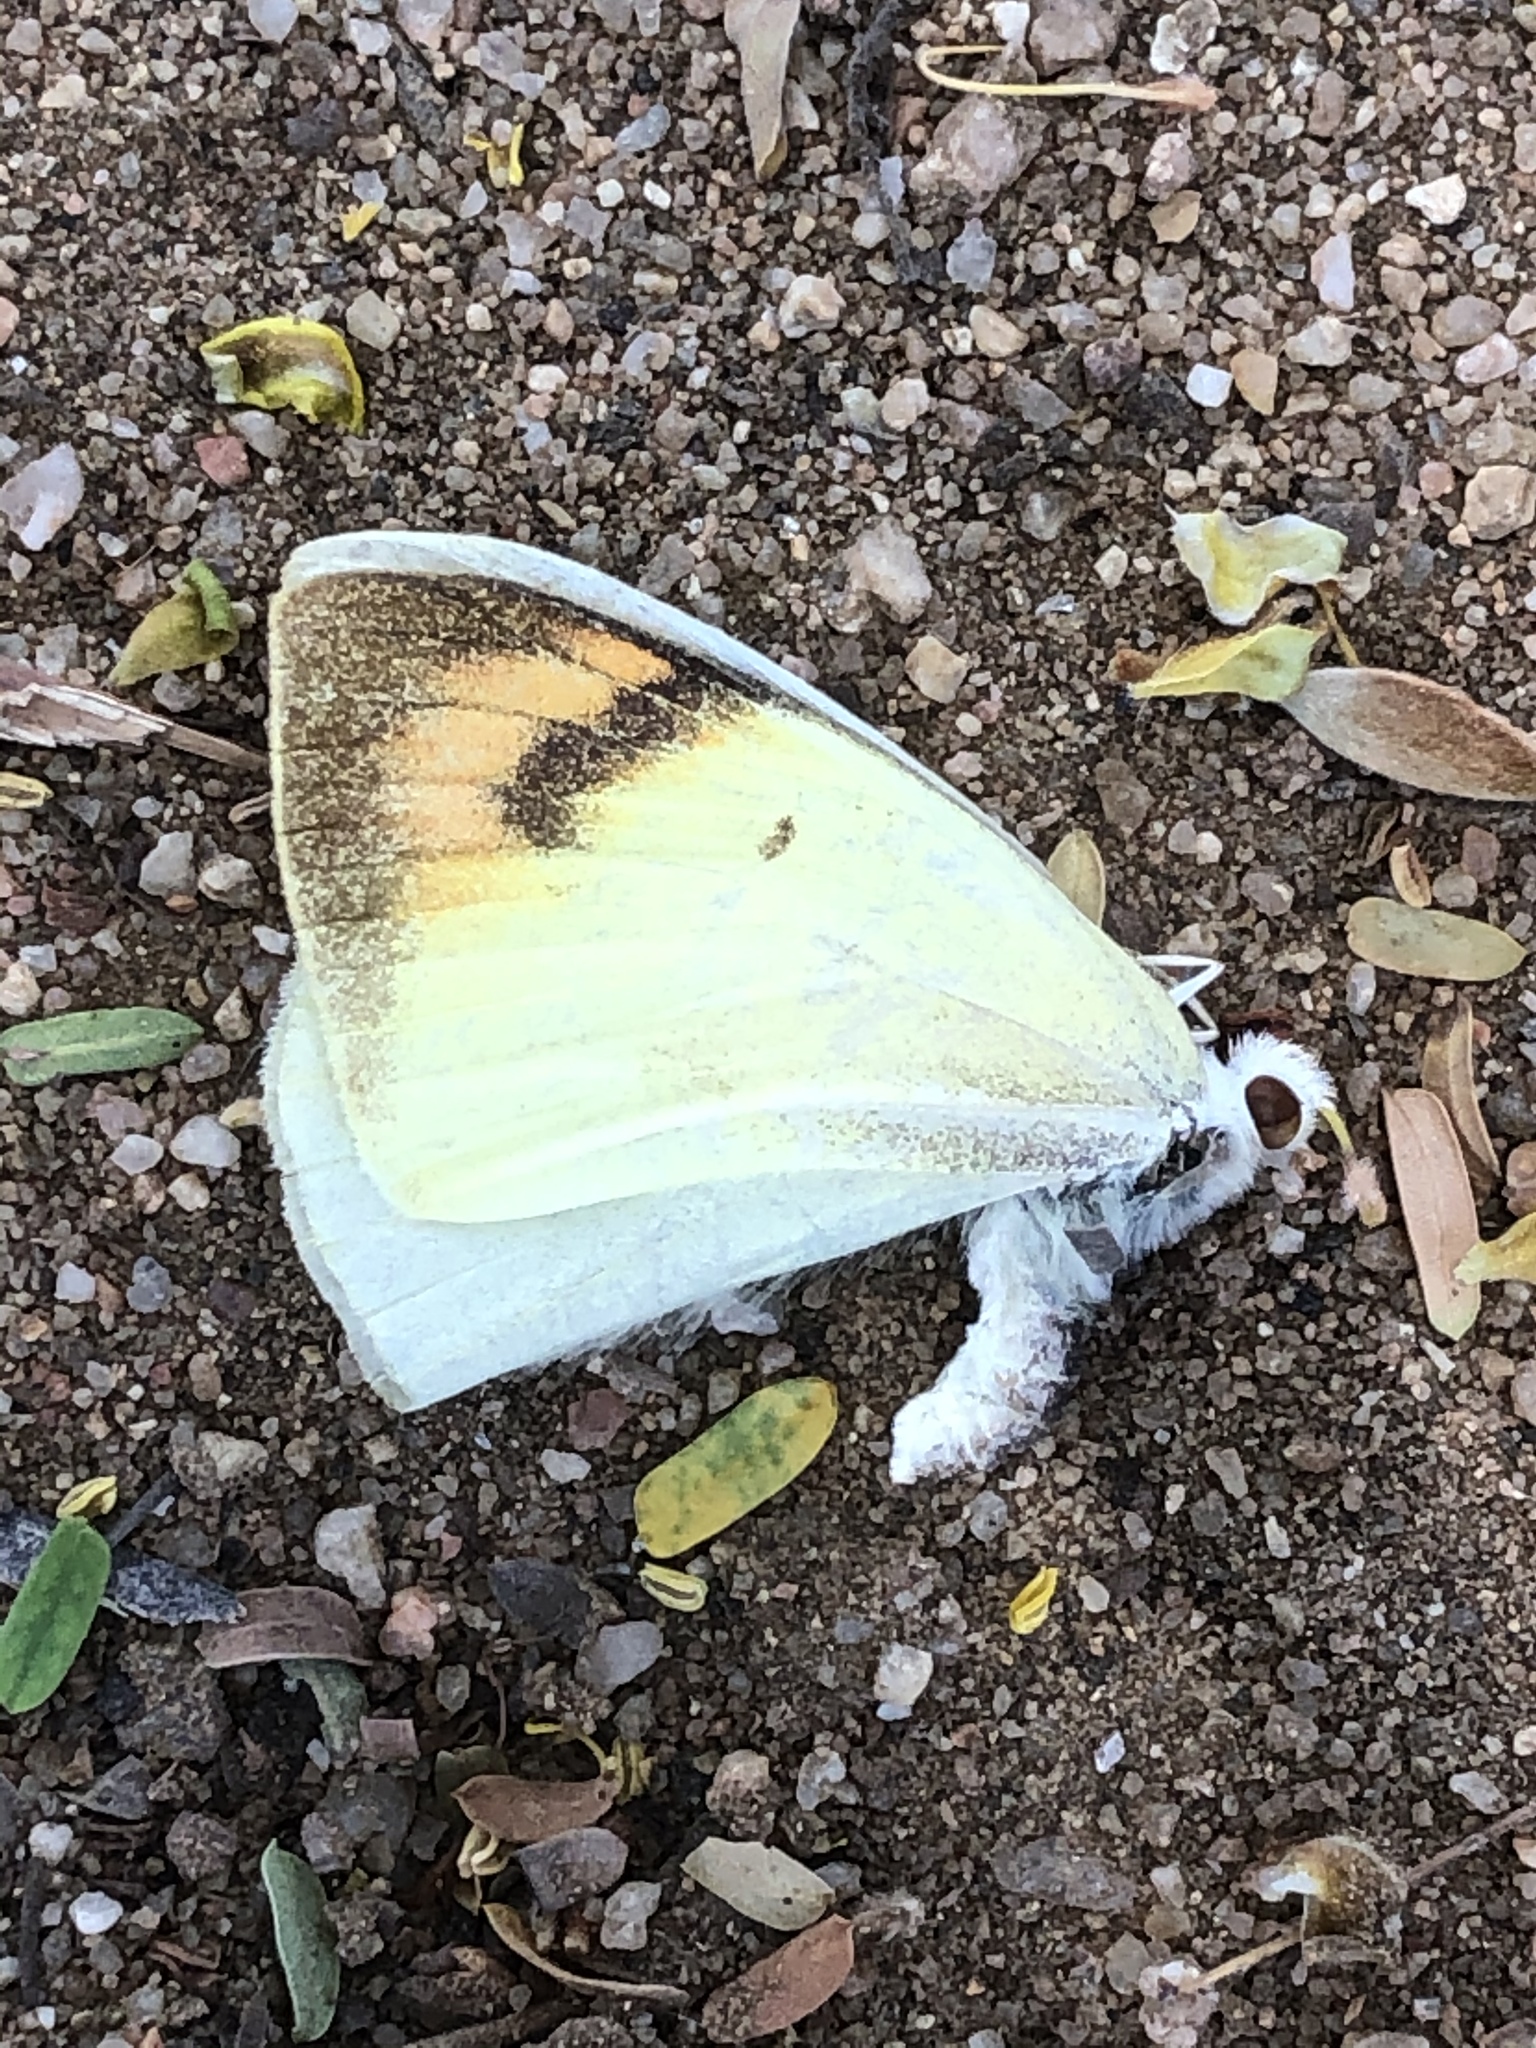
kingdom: Animalia
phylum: Arthropoda
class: Insecta
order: Lepidoptera
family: Pieridae
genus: Colotis
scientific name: Colotis subfasciatus
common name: Lemon traveller tip
